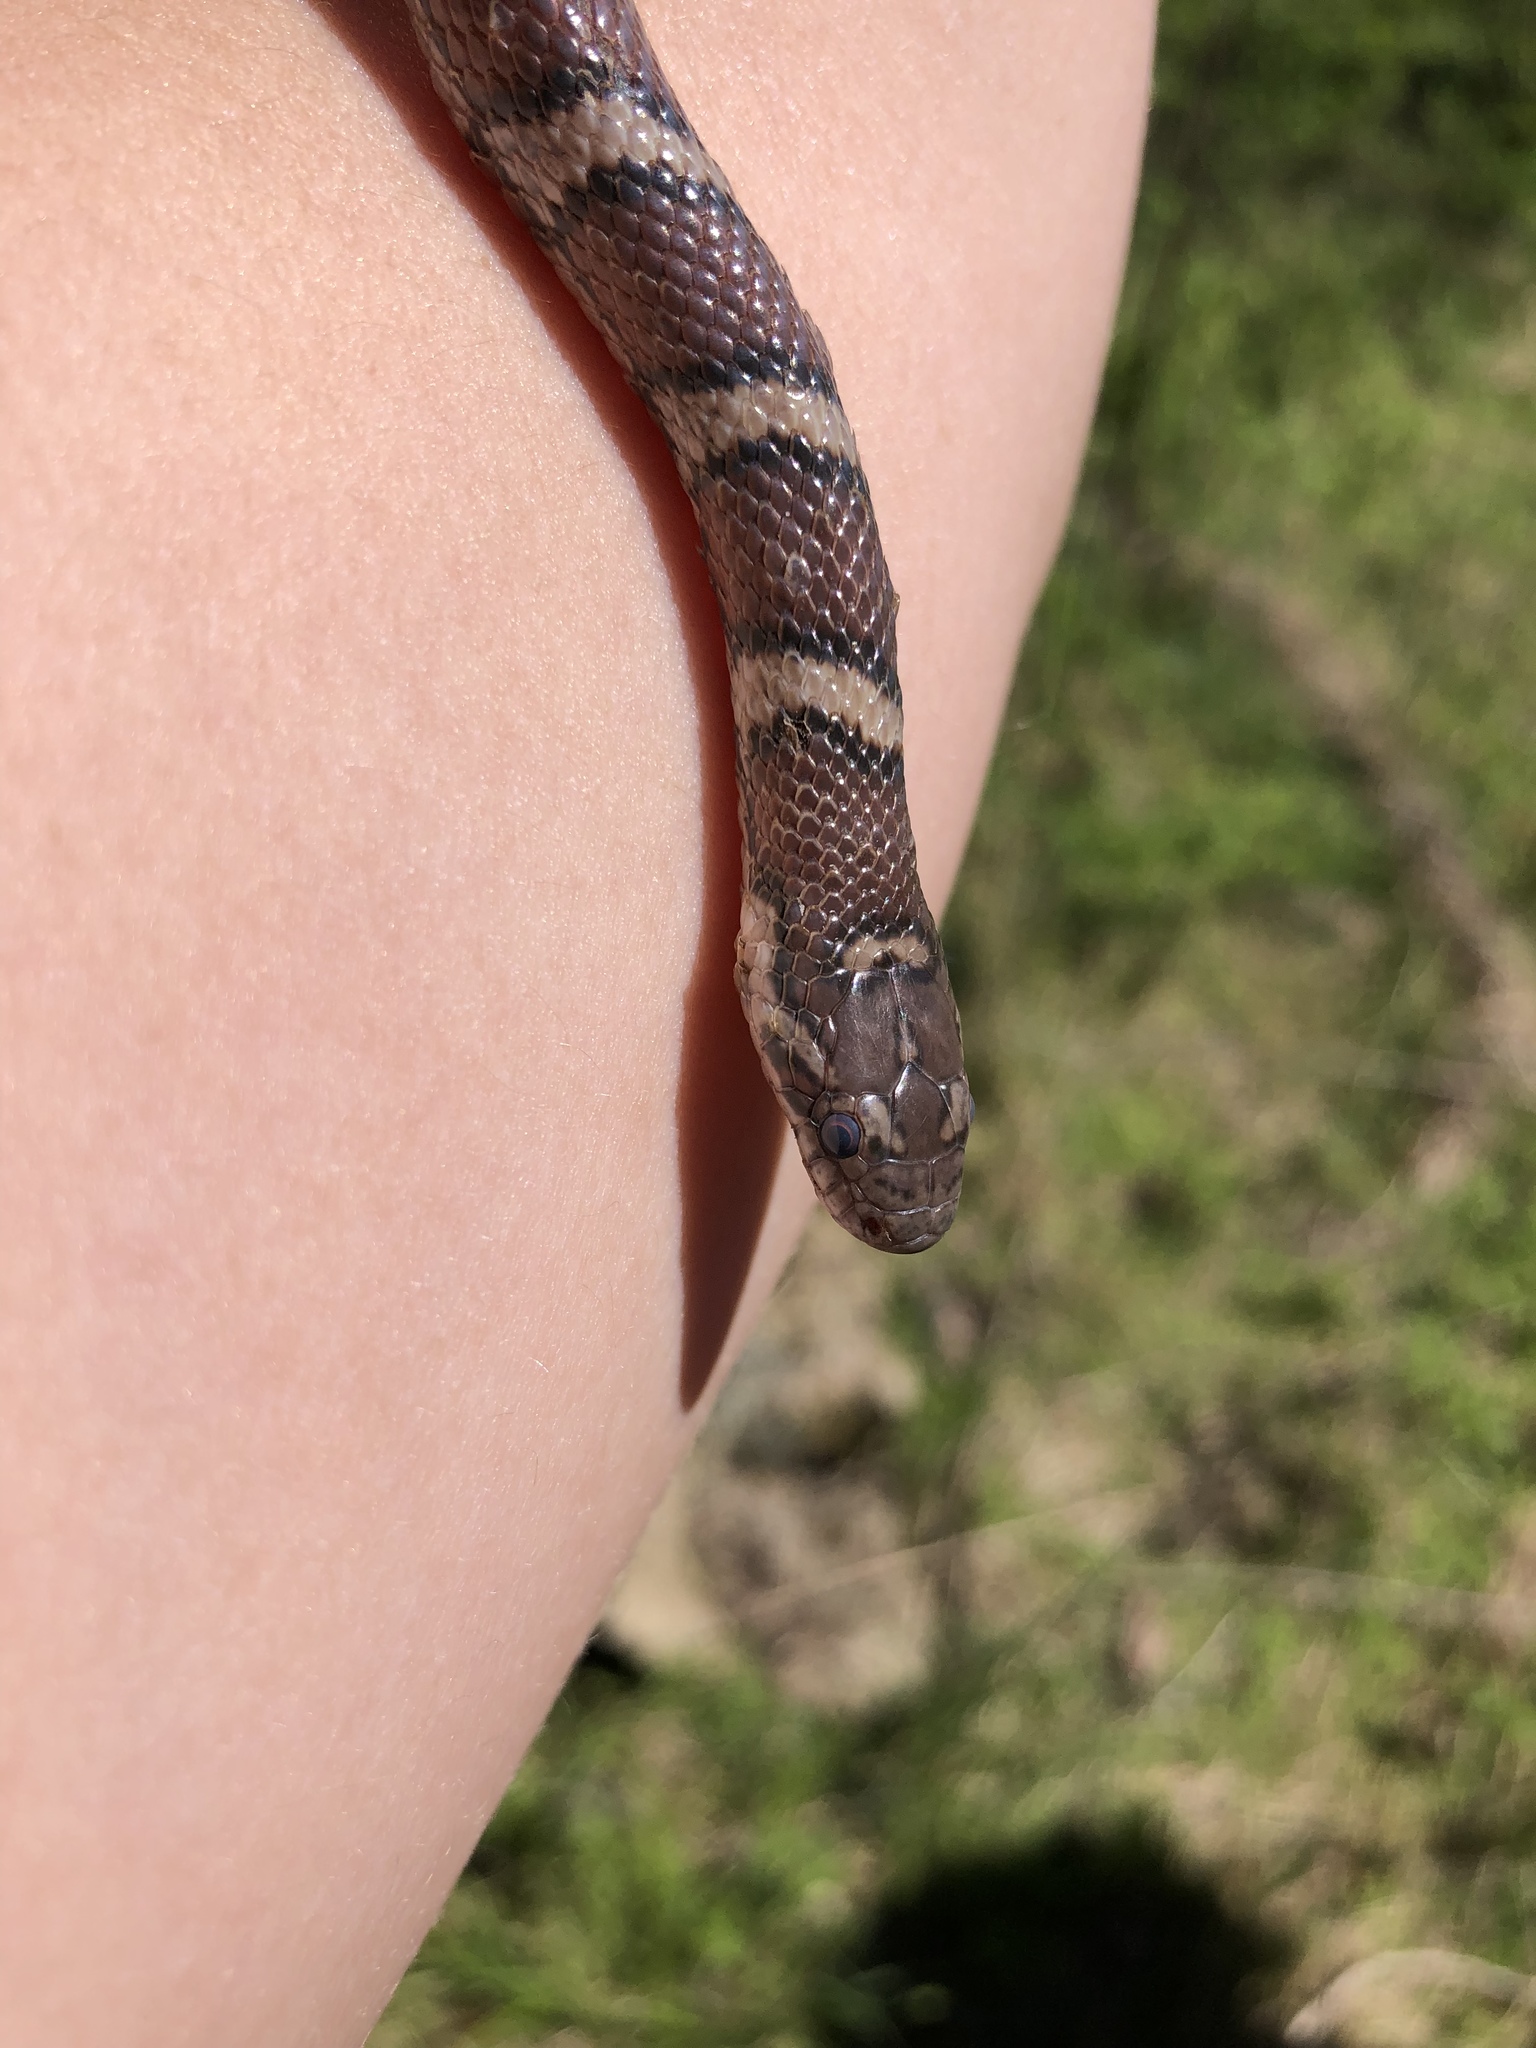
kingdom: Animalia
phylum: Chordata
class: Squamata
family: Colubridae
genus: Lampropeltis
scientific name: Lampropeltis triangulum
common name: Eastern milksnake
